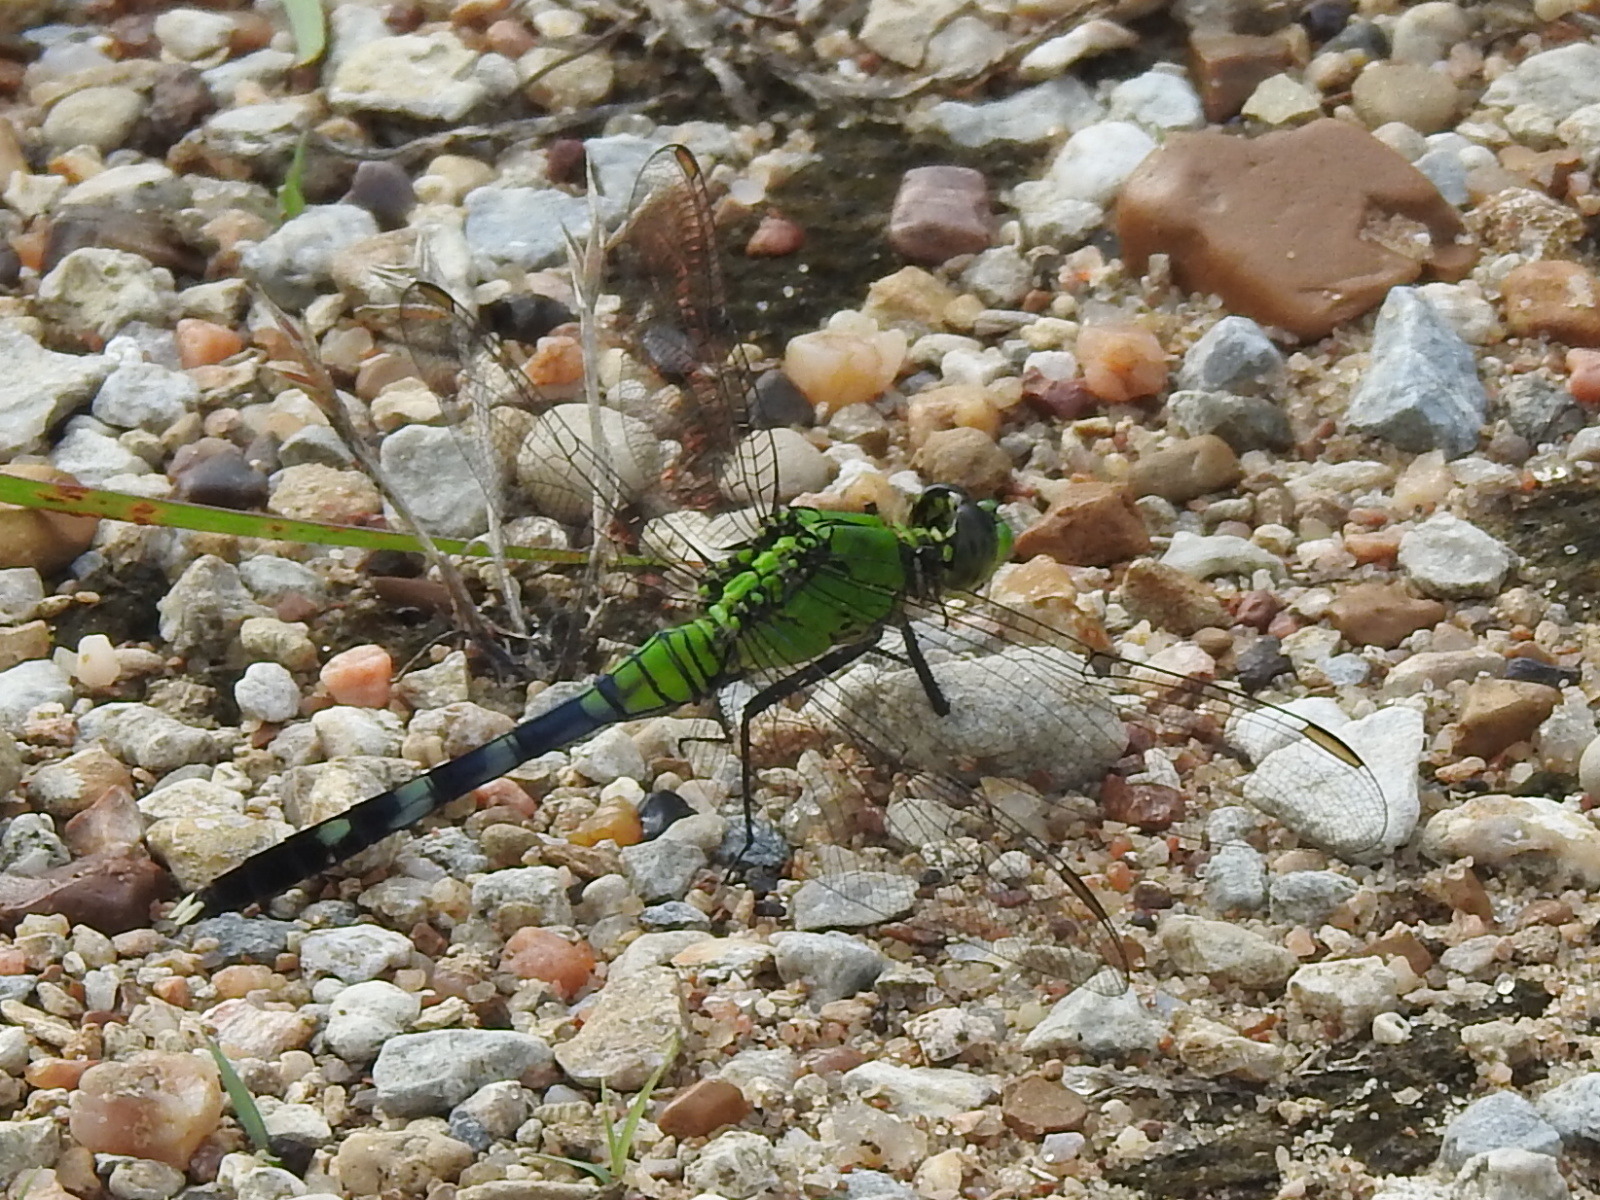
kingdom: Animalia
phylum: Arthropoda
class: Insecta
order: Odonata
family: Libellulidae
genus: Erythemis
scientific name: Erythemis simplicicollis
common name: Eastern pondhawk
